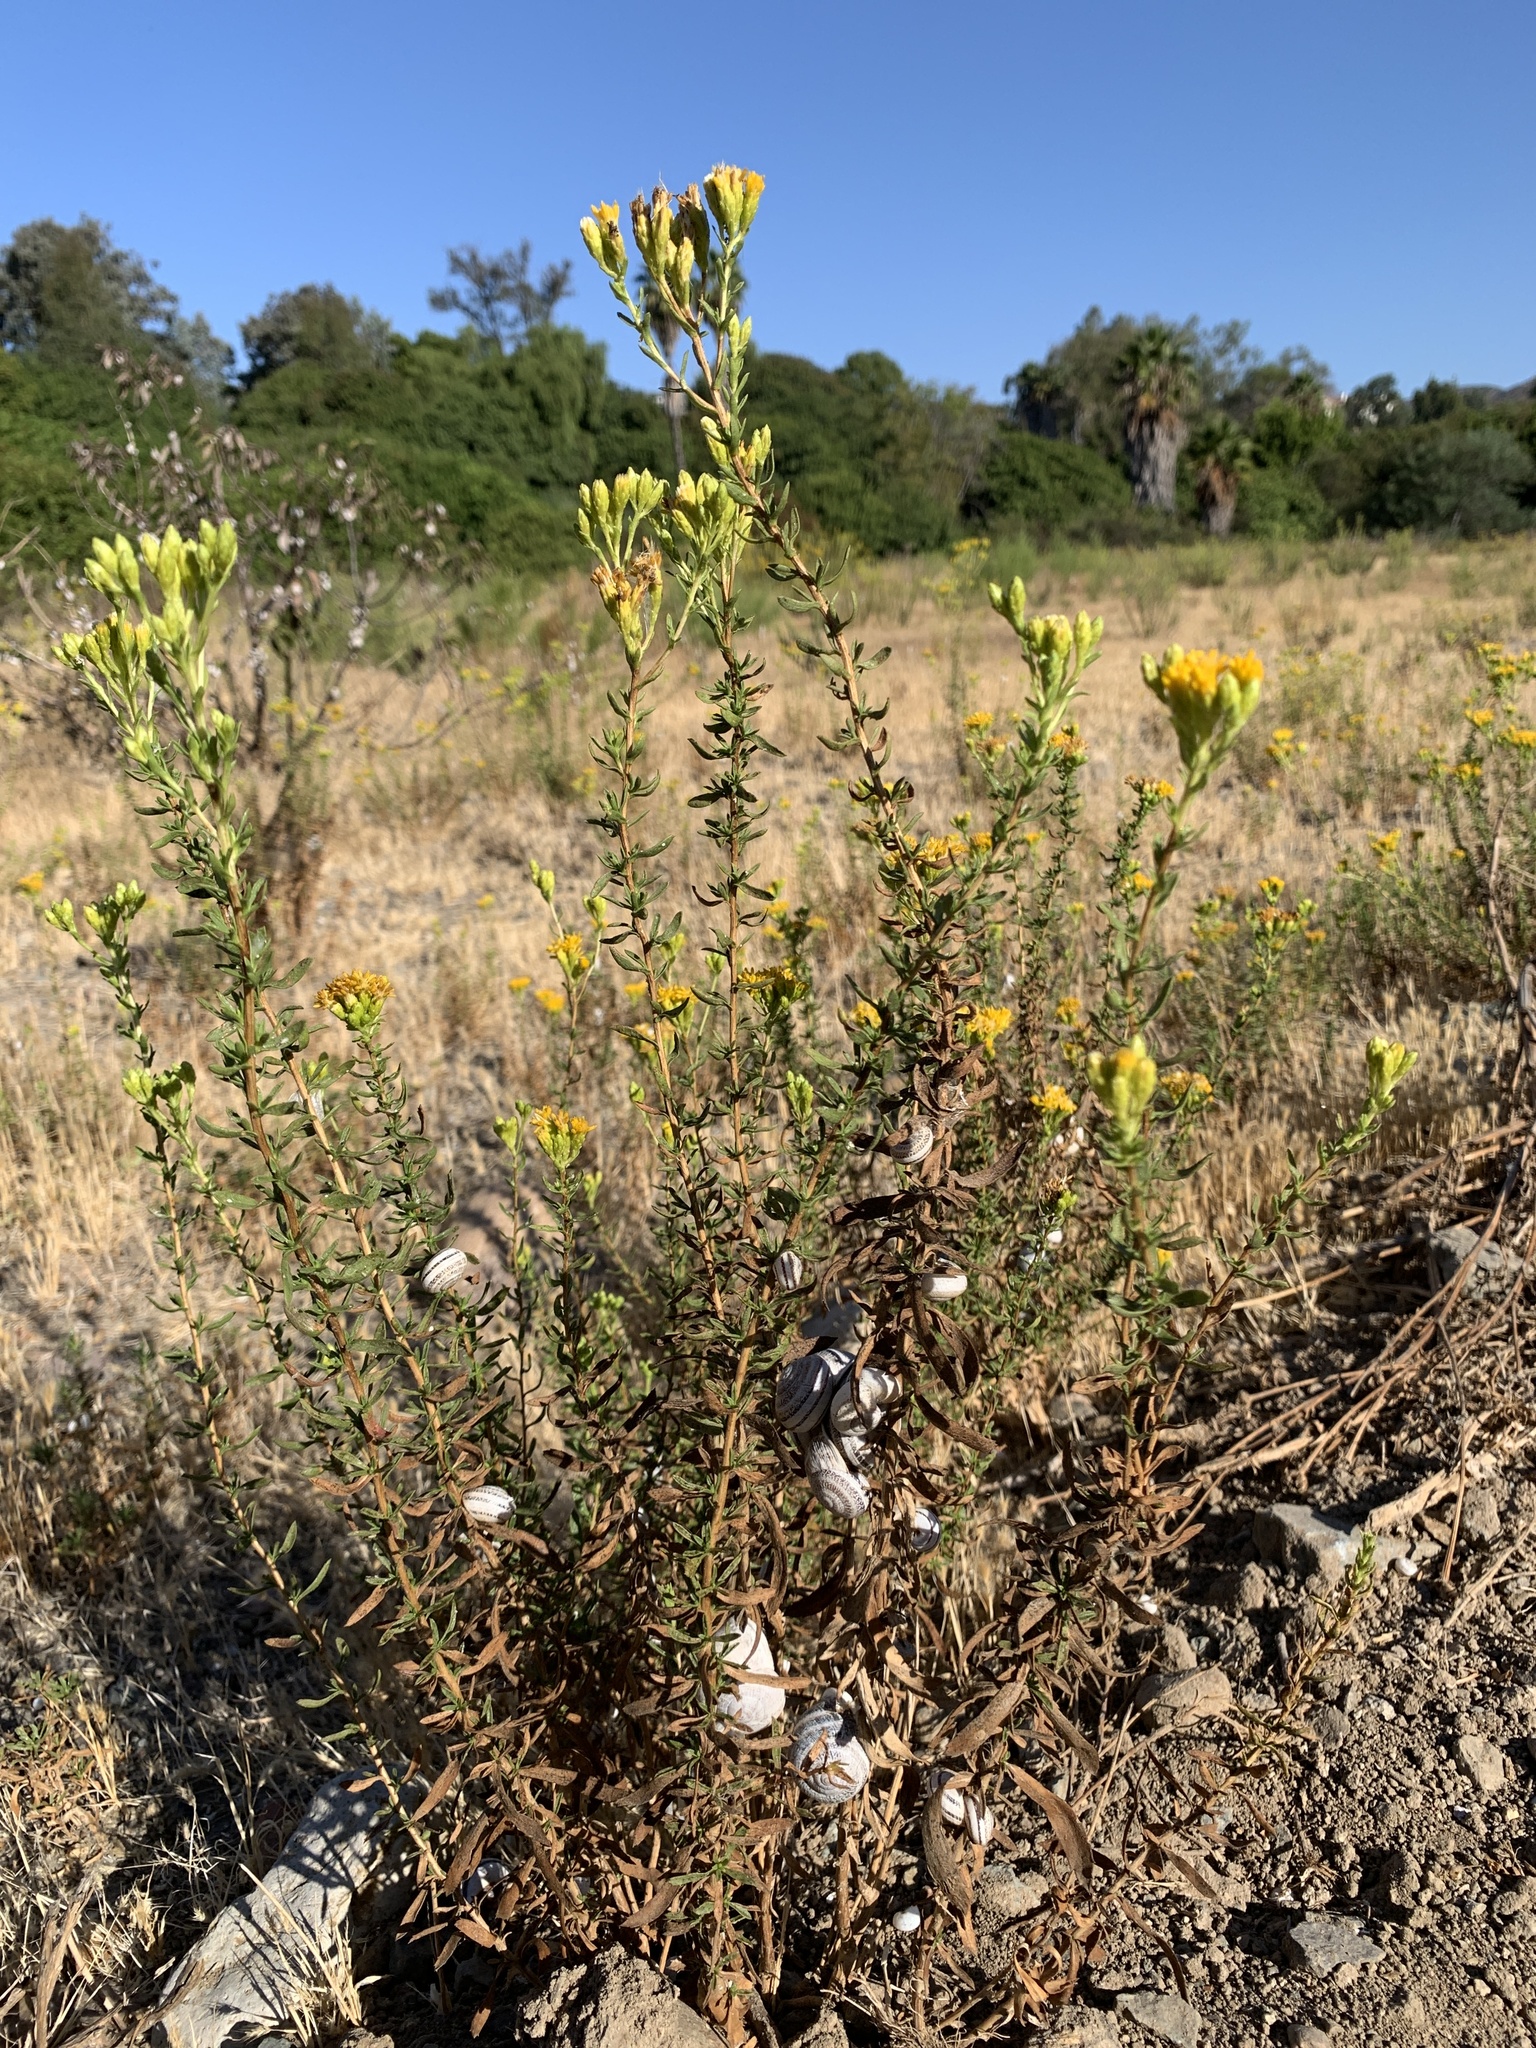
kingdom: Animalia
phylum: Mollusca
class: Gastropoda
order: Stylommatophora
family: Helicidae
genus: Otala
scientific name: Otala lactea
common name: Milk snail
